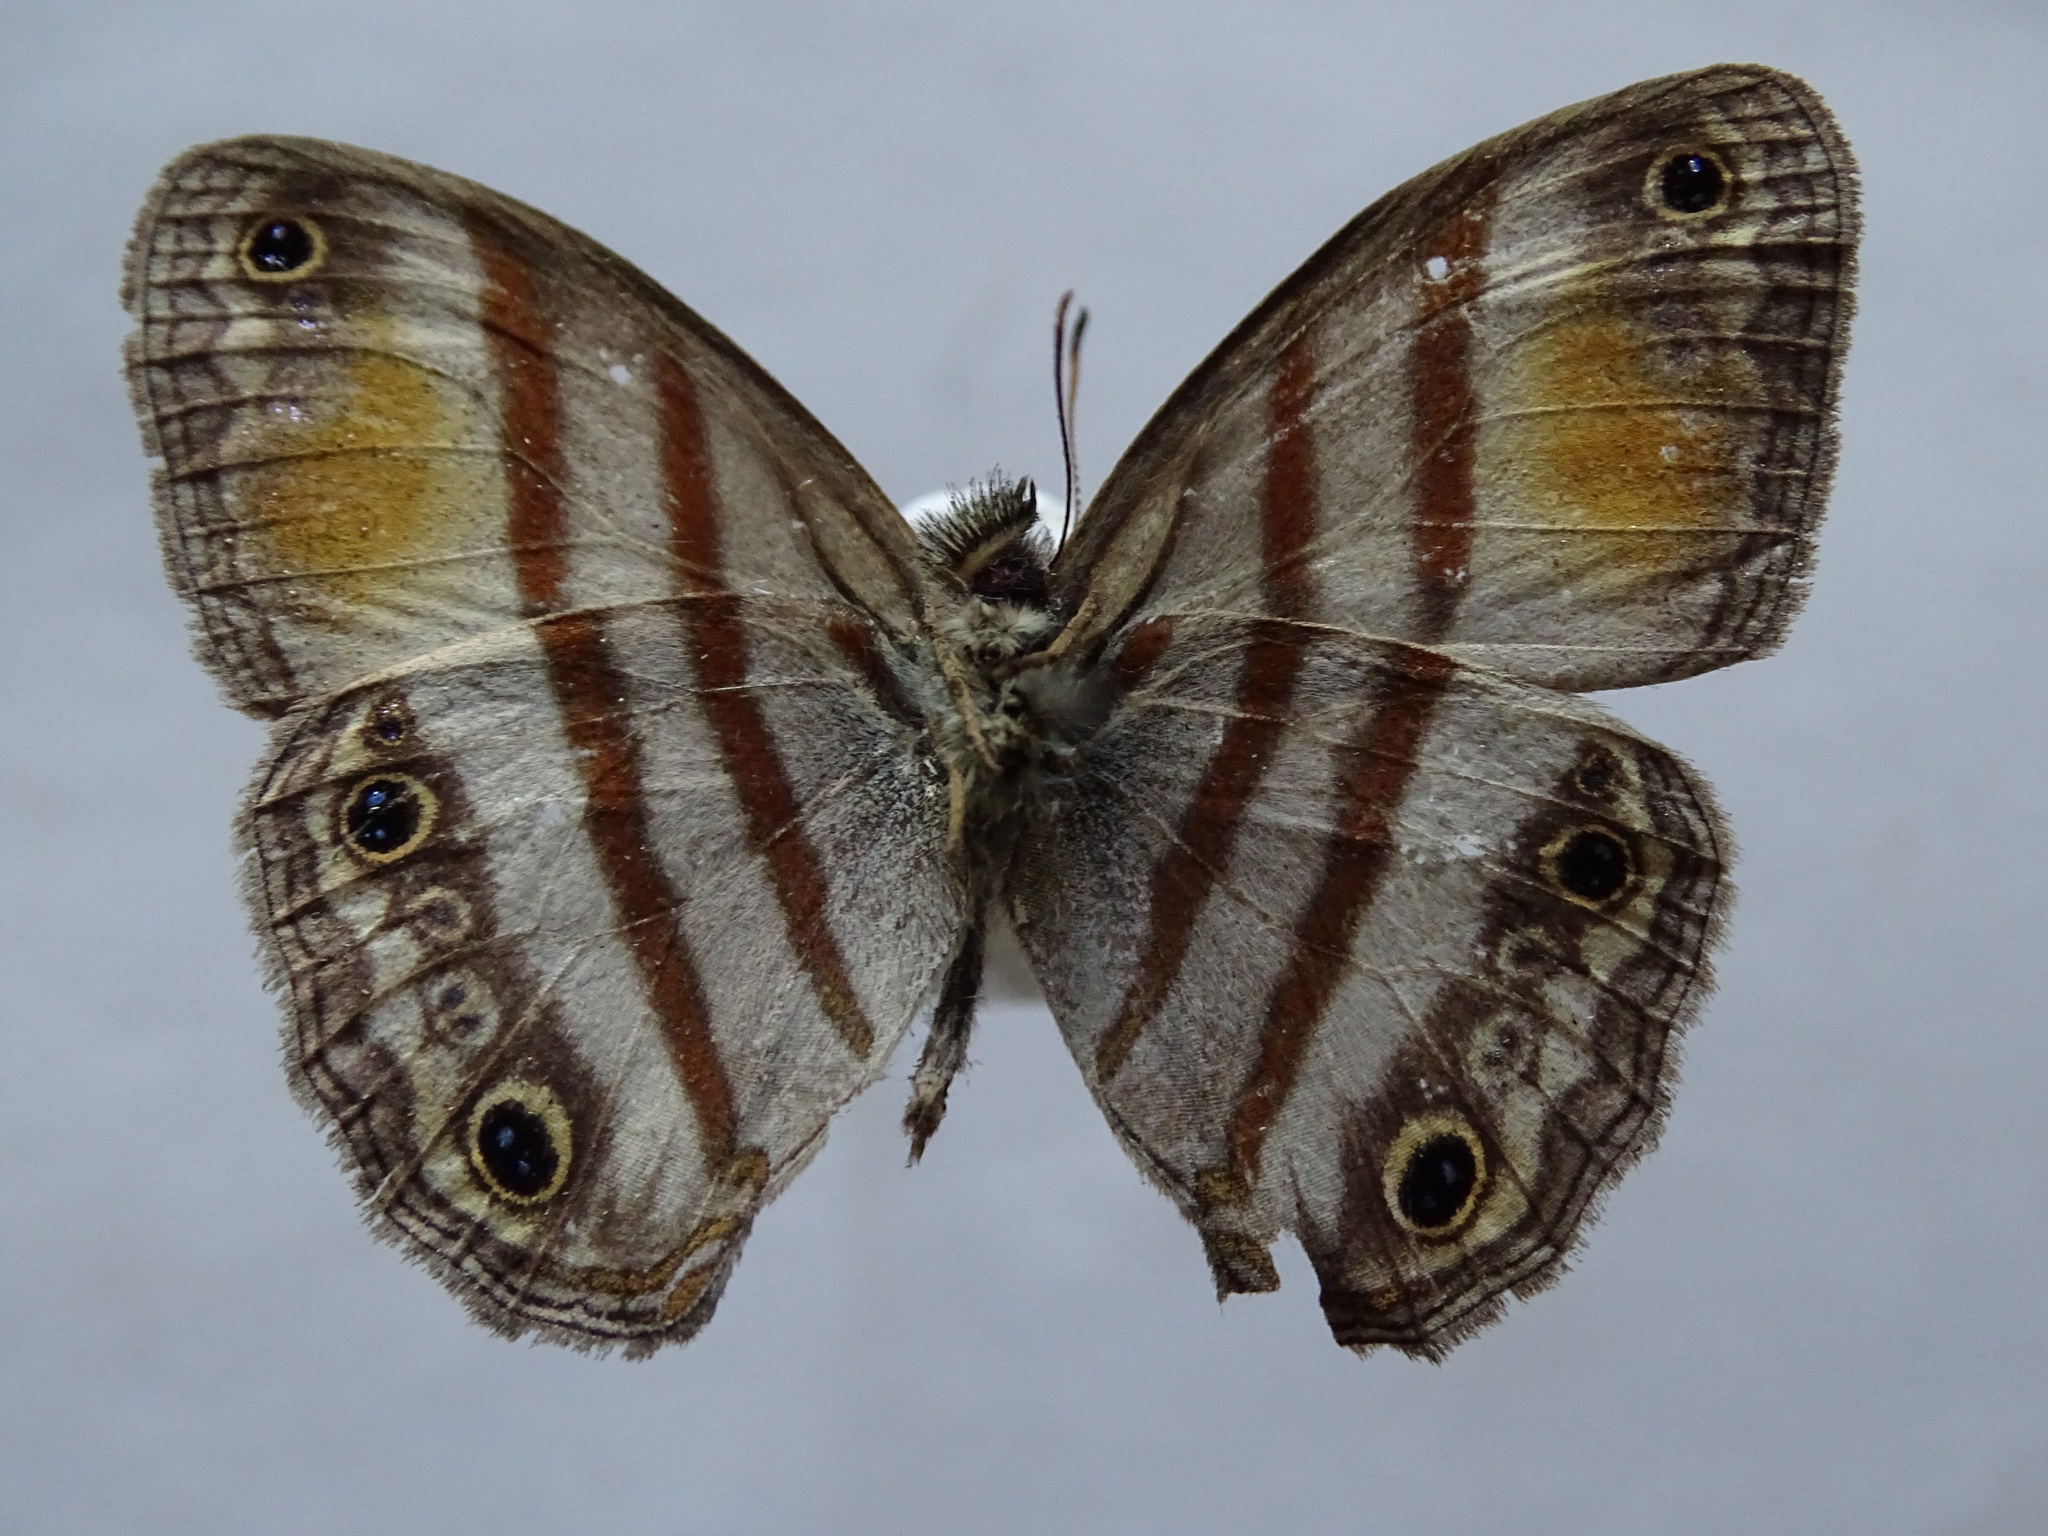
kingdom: Animalia
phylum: Arthropoda
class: Insecta
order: Lepidoptera
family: Nymphalidae
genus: Paryphthimoides
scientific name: Paryphthimoides
